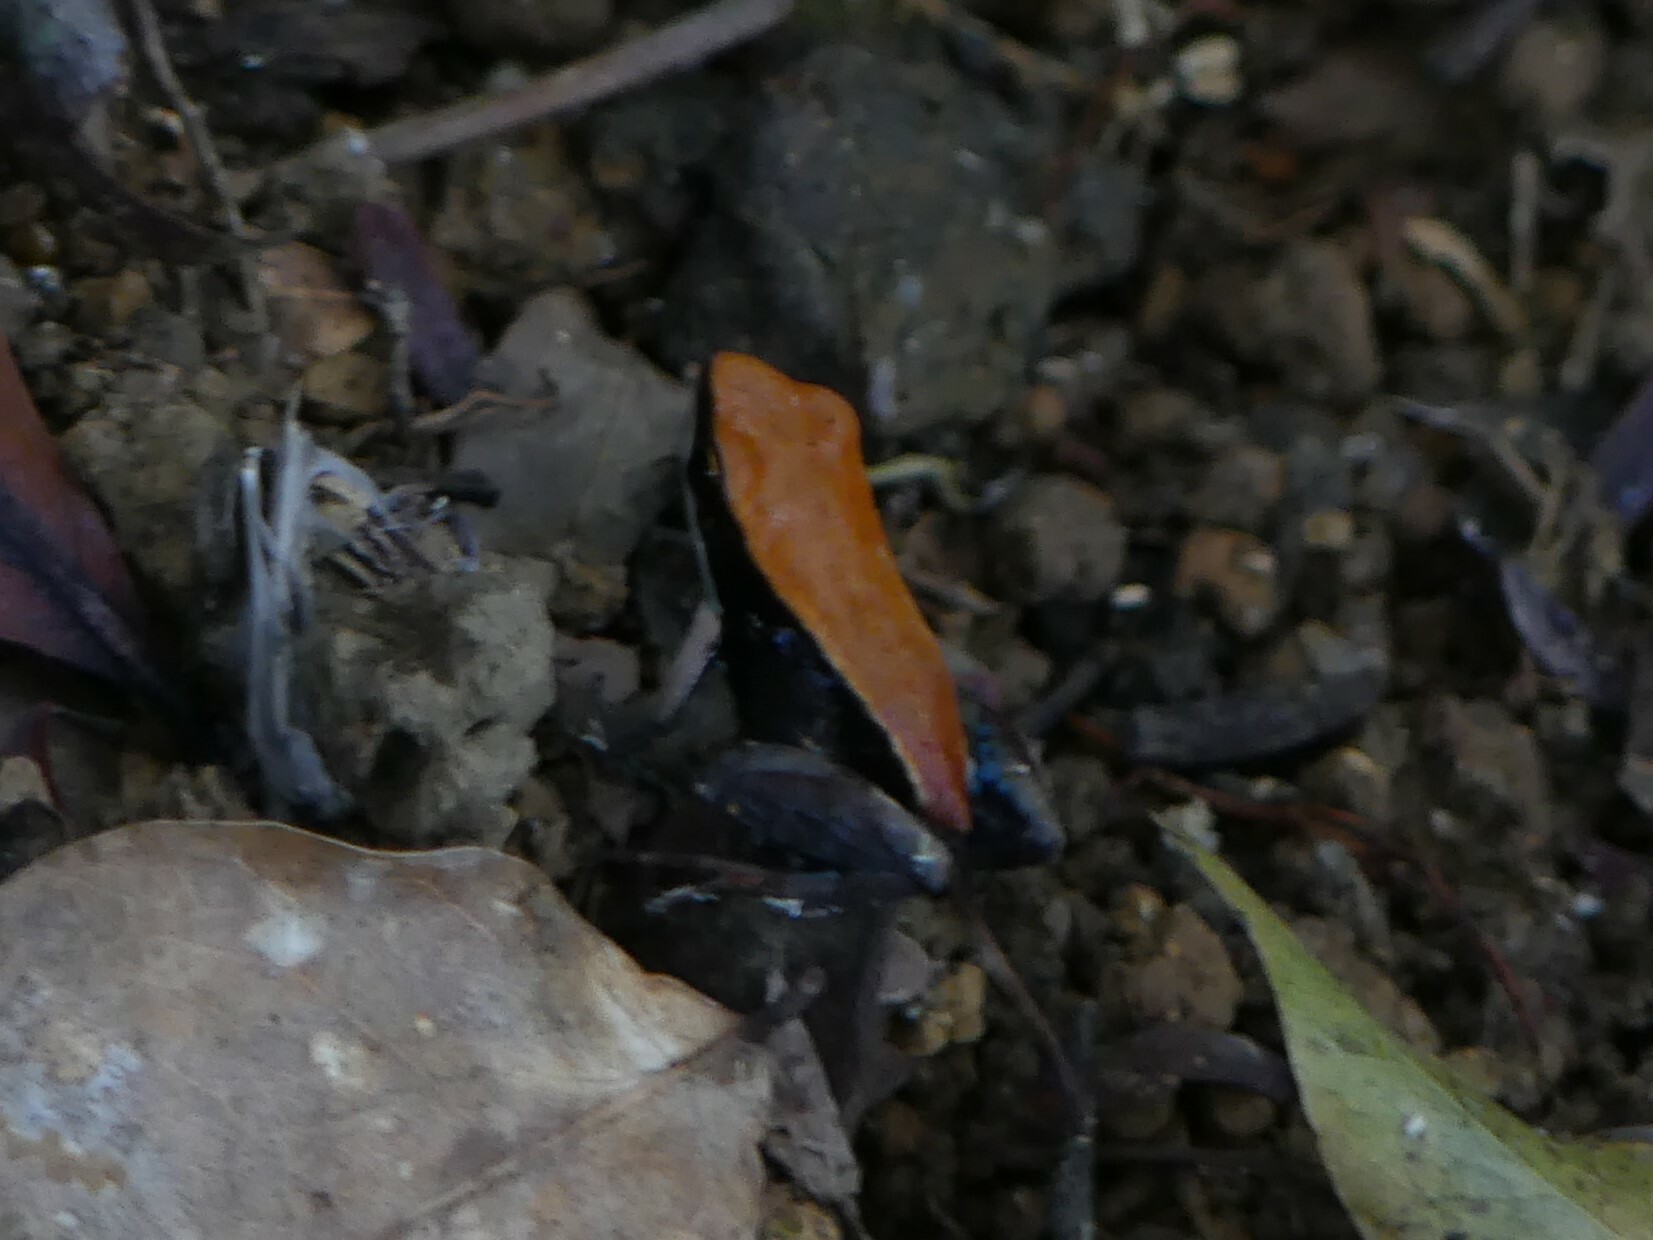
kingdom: Animalia
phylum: Chordata
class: Amphibia
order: Anura
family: Mantellidae
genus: Mantella
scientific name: Mantella ebenaui
